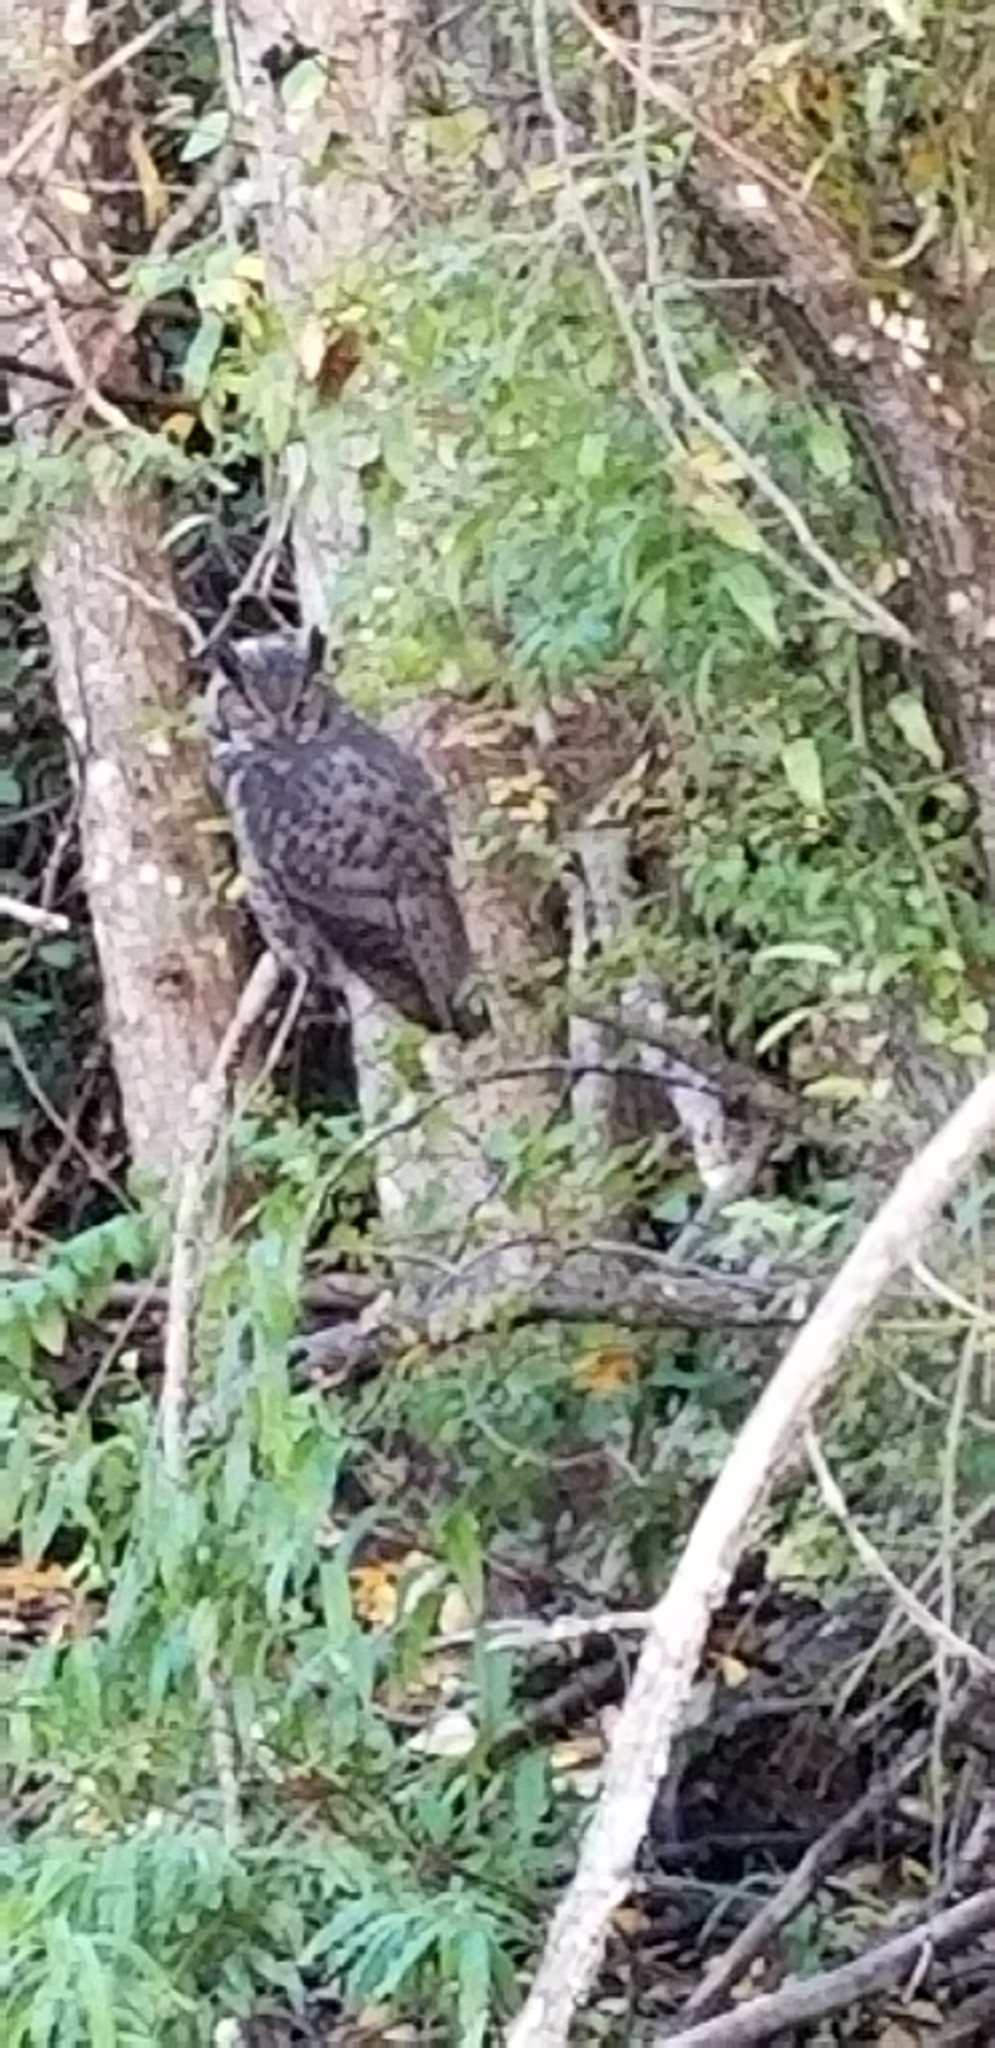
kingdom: Animalia
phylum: Chordata
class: Aves
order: Strigiformes
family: Strigidae
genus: Bubo
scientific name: Bubo virginianus
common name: Great horned owl
